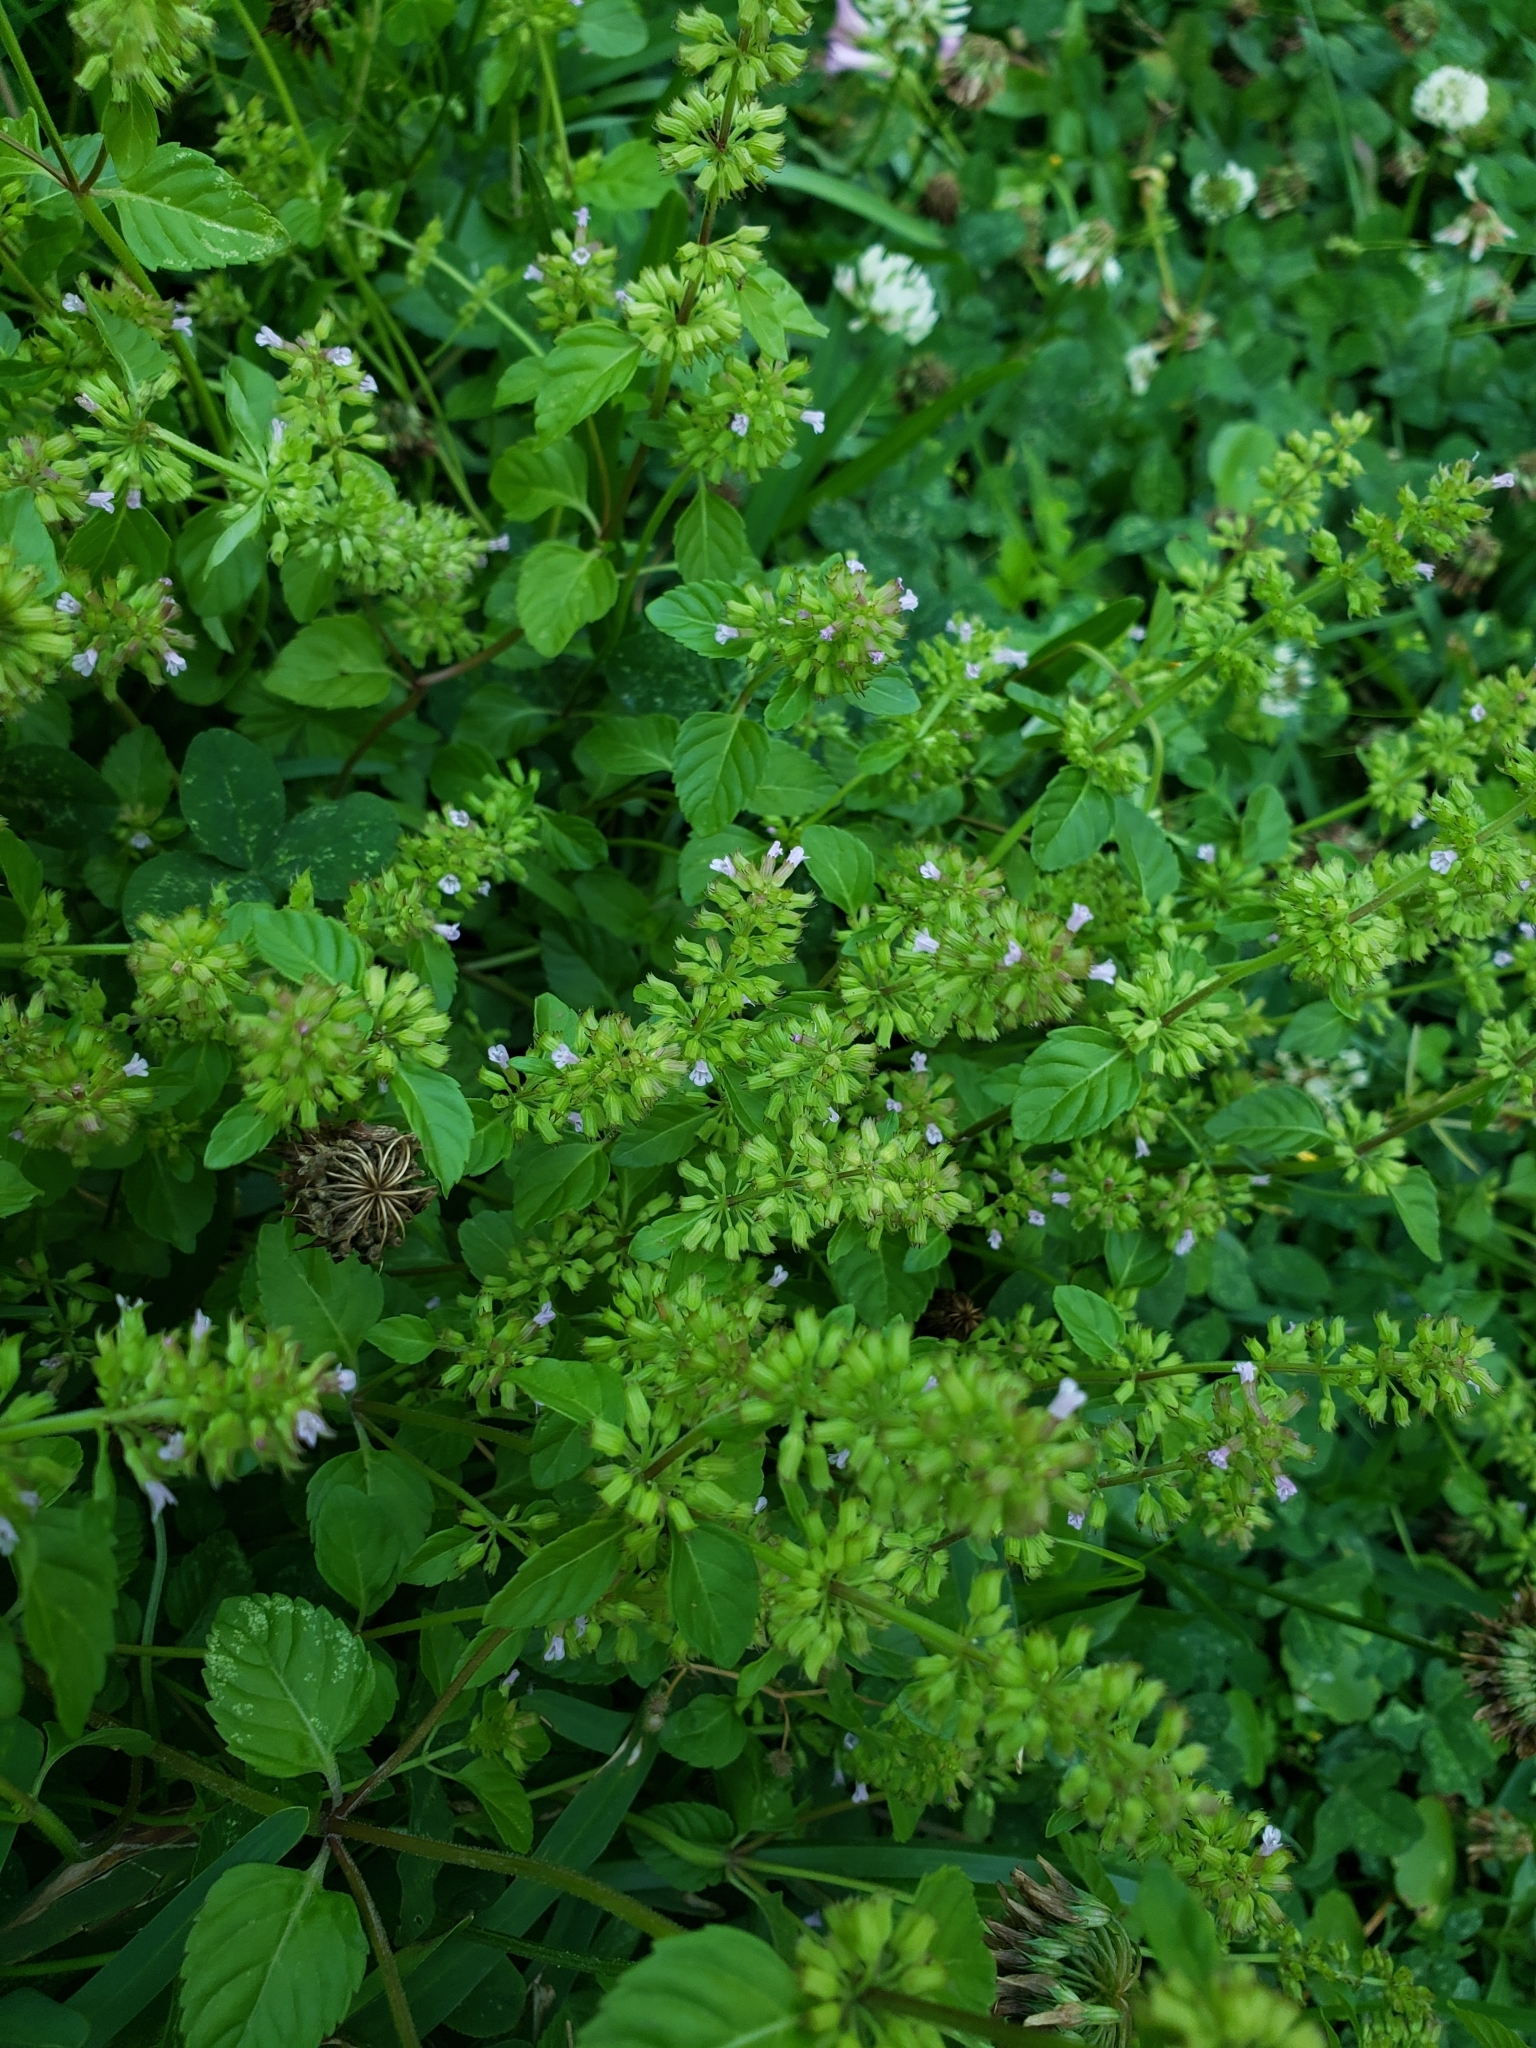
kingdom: Plantae
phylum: Tracheophyta
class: Magnoliopsida
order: Lamiales
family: Lamiaceae
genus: Clinopodium
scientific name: Clinopodium gracile
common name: Slender wild basil
